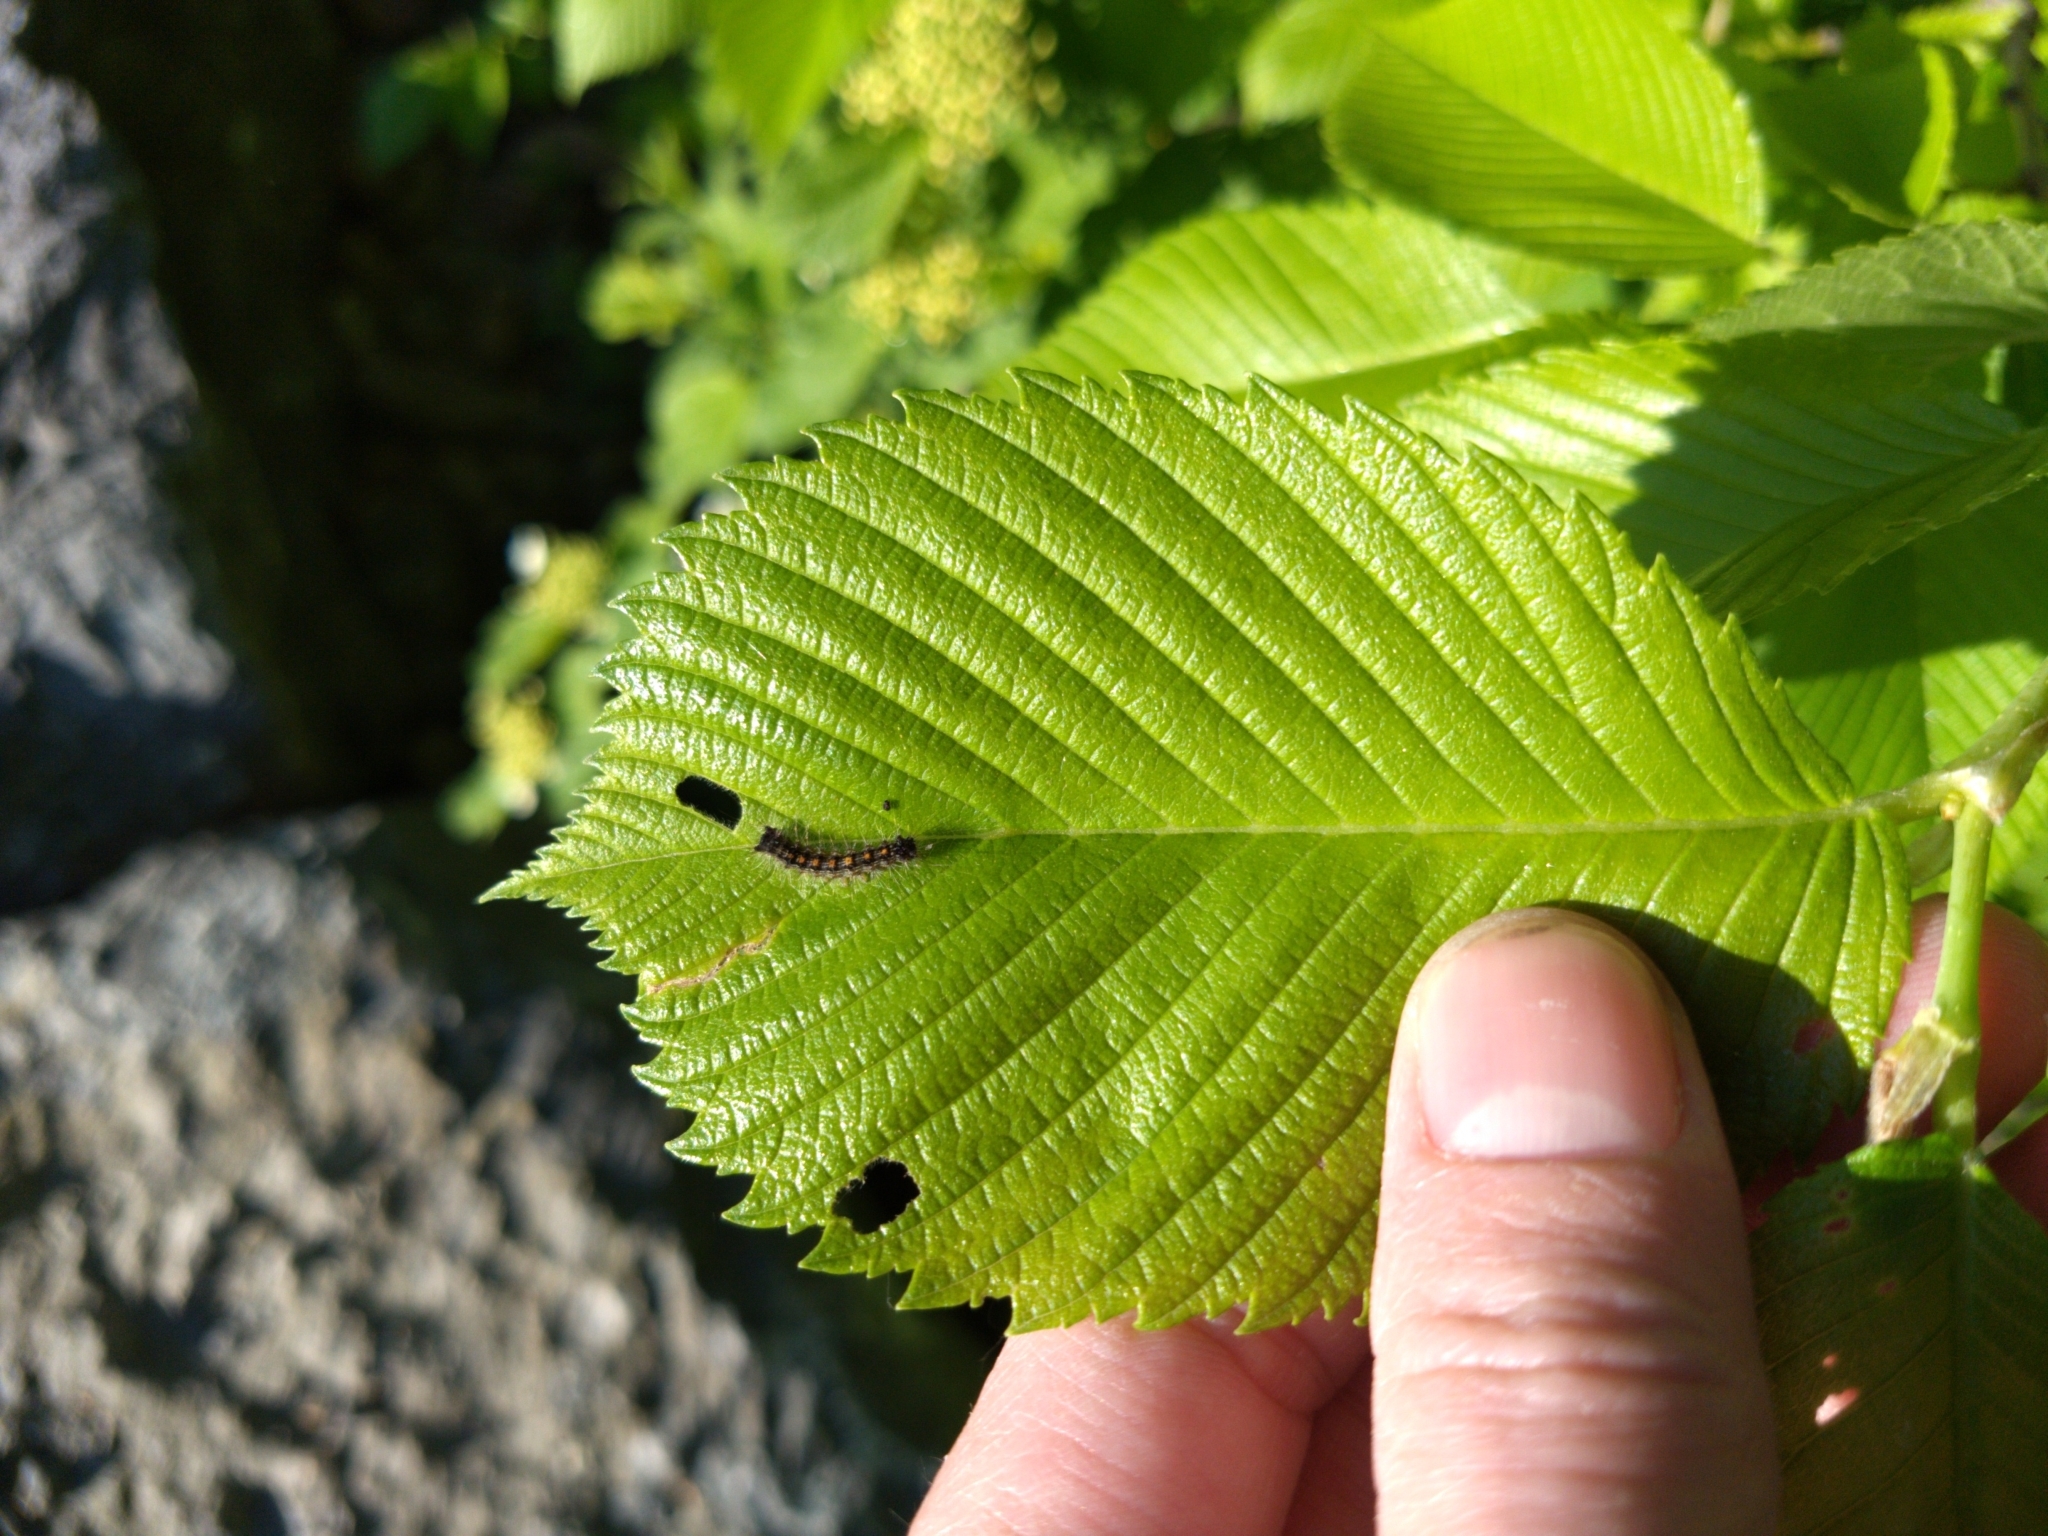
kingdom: Animalia
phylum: Arthropoda
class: Insecta
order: Lepidoptera
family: Erebidae
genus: Lymantria
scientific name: Lymantria dispar
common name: Gypsy moth
